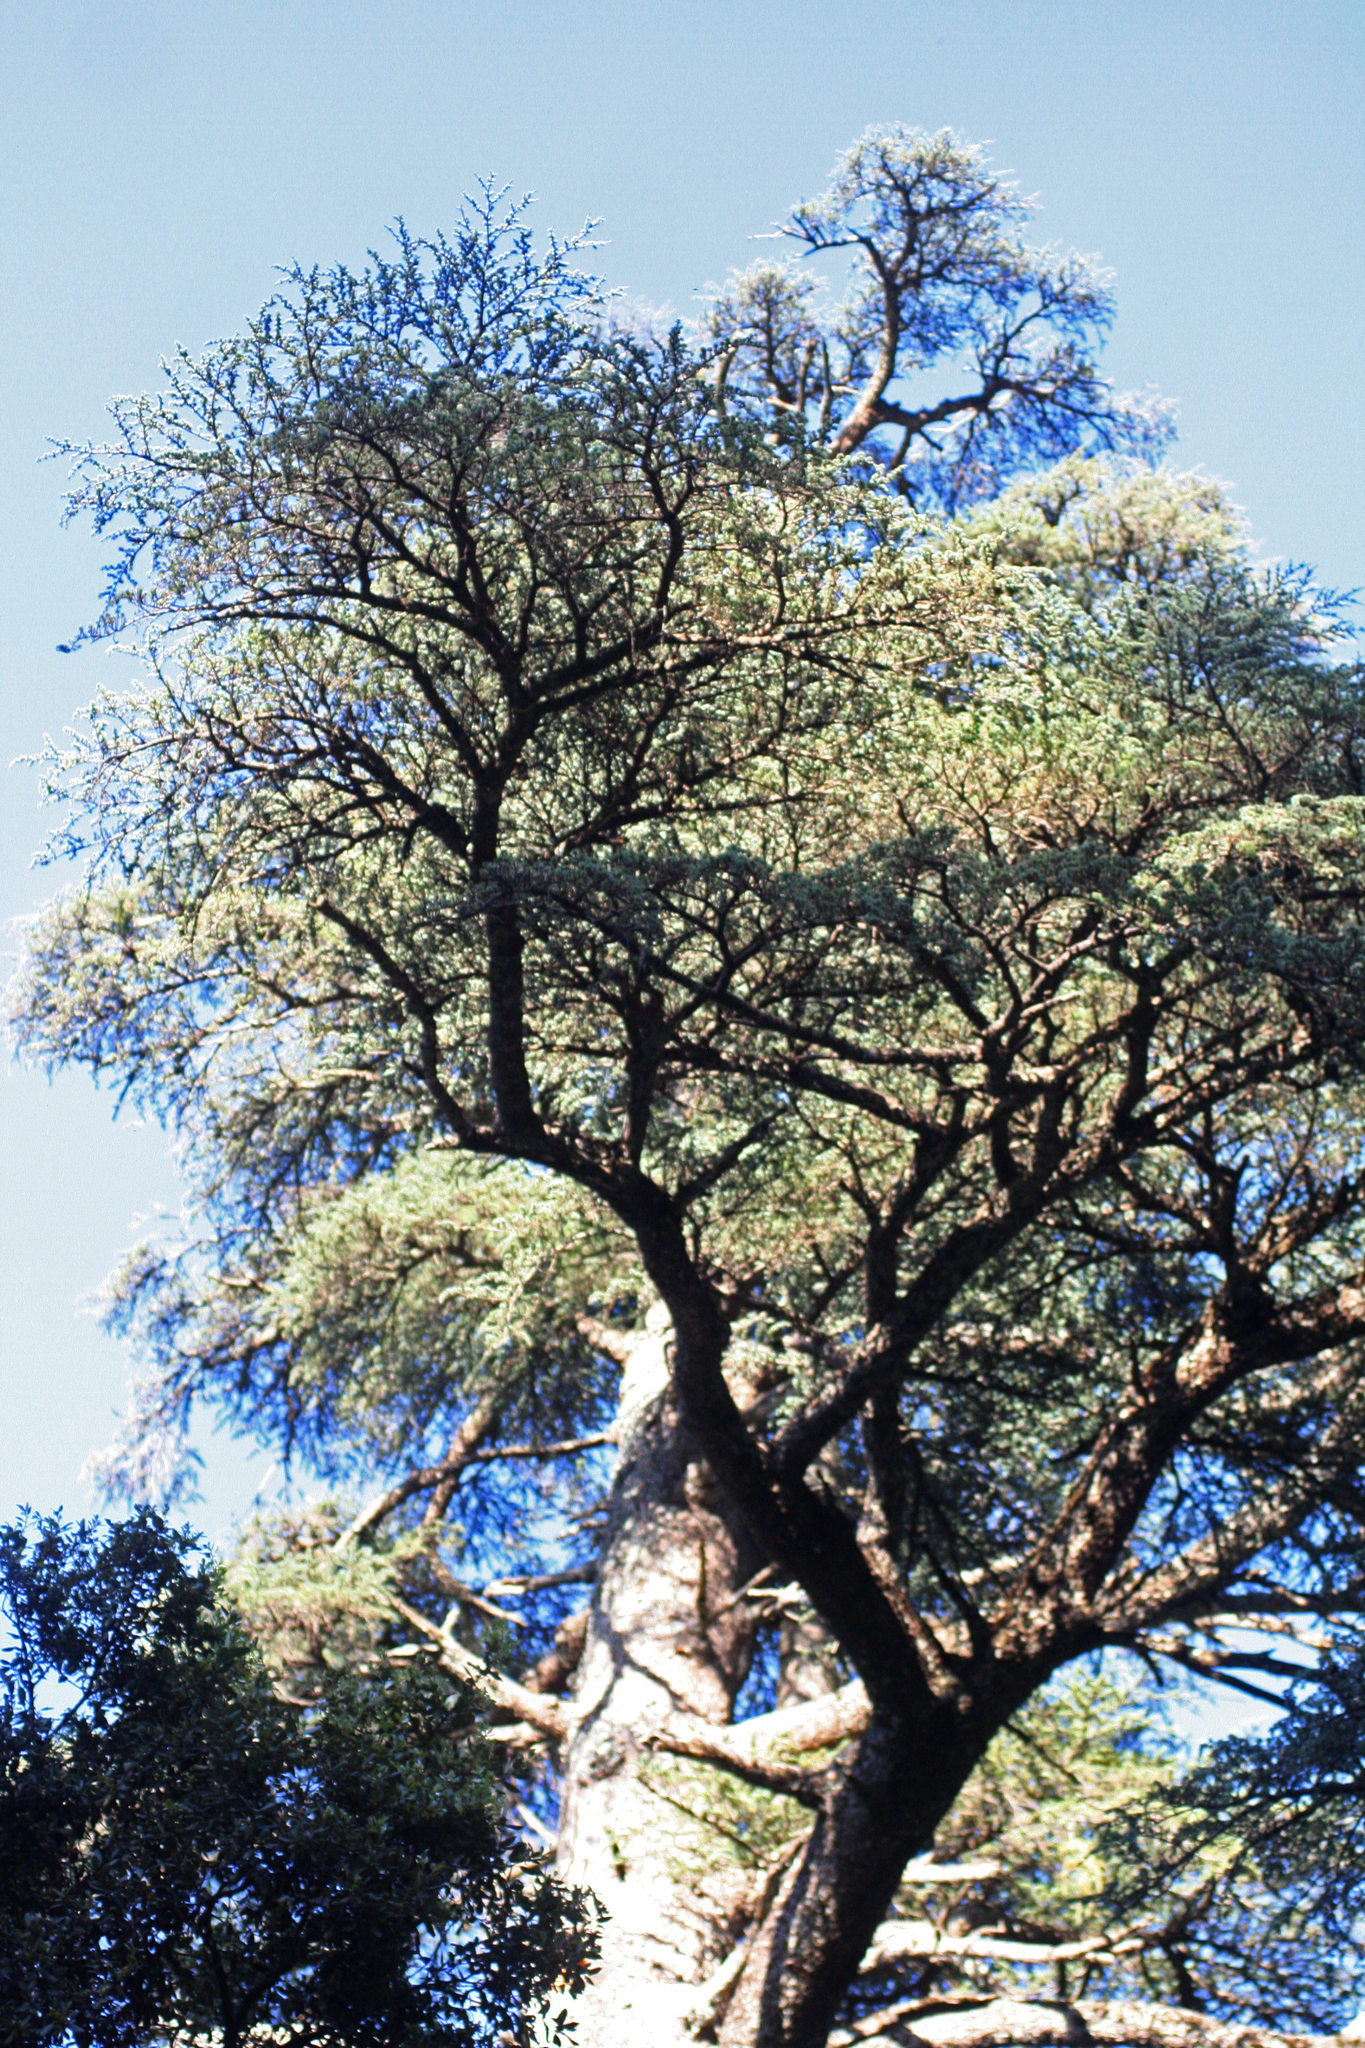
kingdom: Plantae
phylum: Tracheophyta
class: Pinopsida
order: Pinales
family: Pinaceae
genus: Cedrus
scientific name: Cedrus atlantica
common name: Atlas cedar
